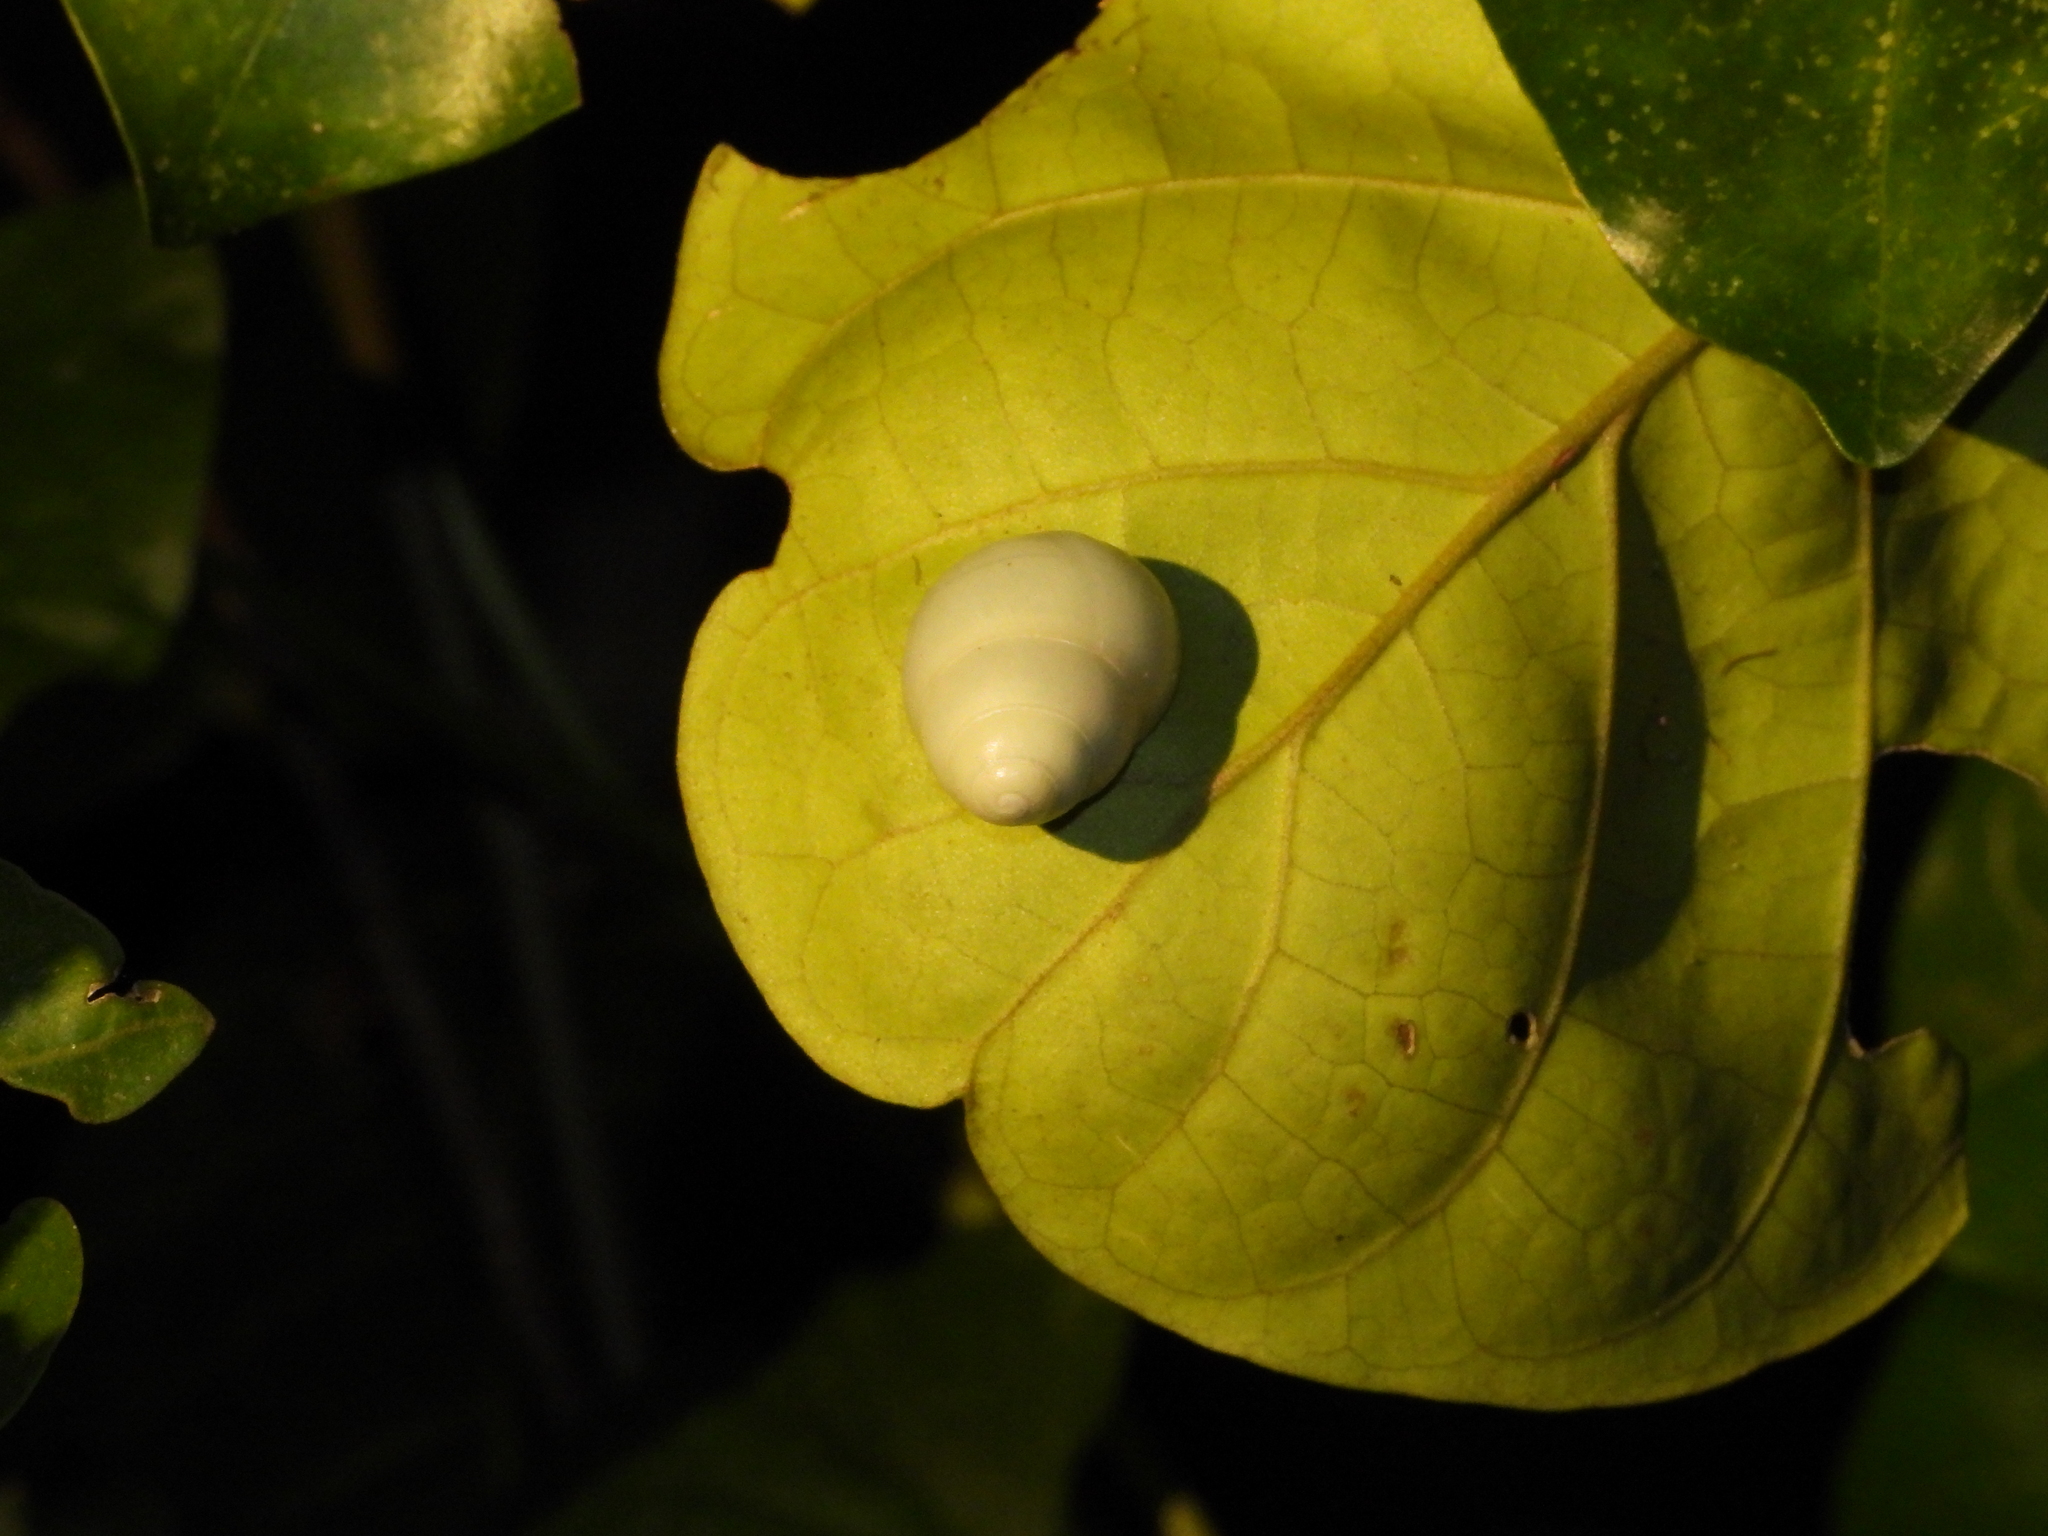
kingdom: Animalia
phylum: Mollusca
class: Gastropoda
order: Stylommatophora
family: Camaenidae
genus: Helicostyla
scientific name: Helicostyla okadai
